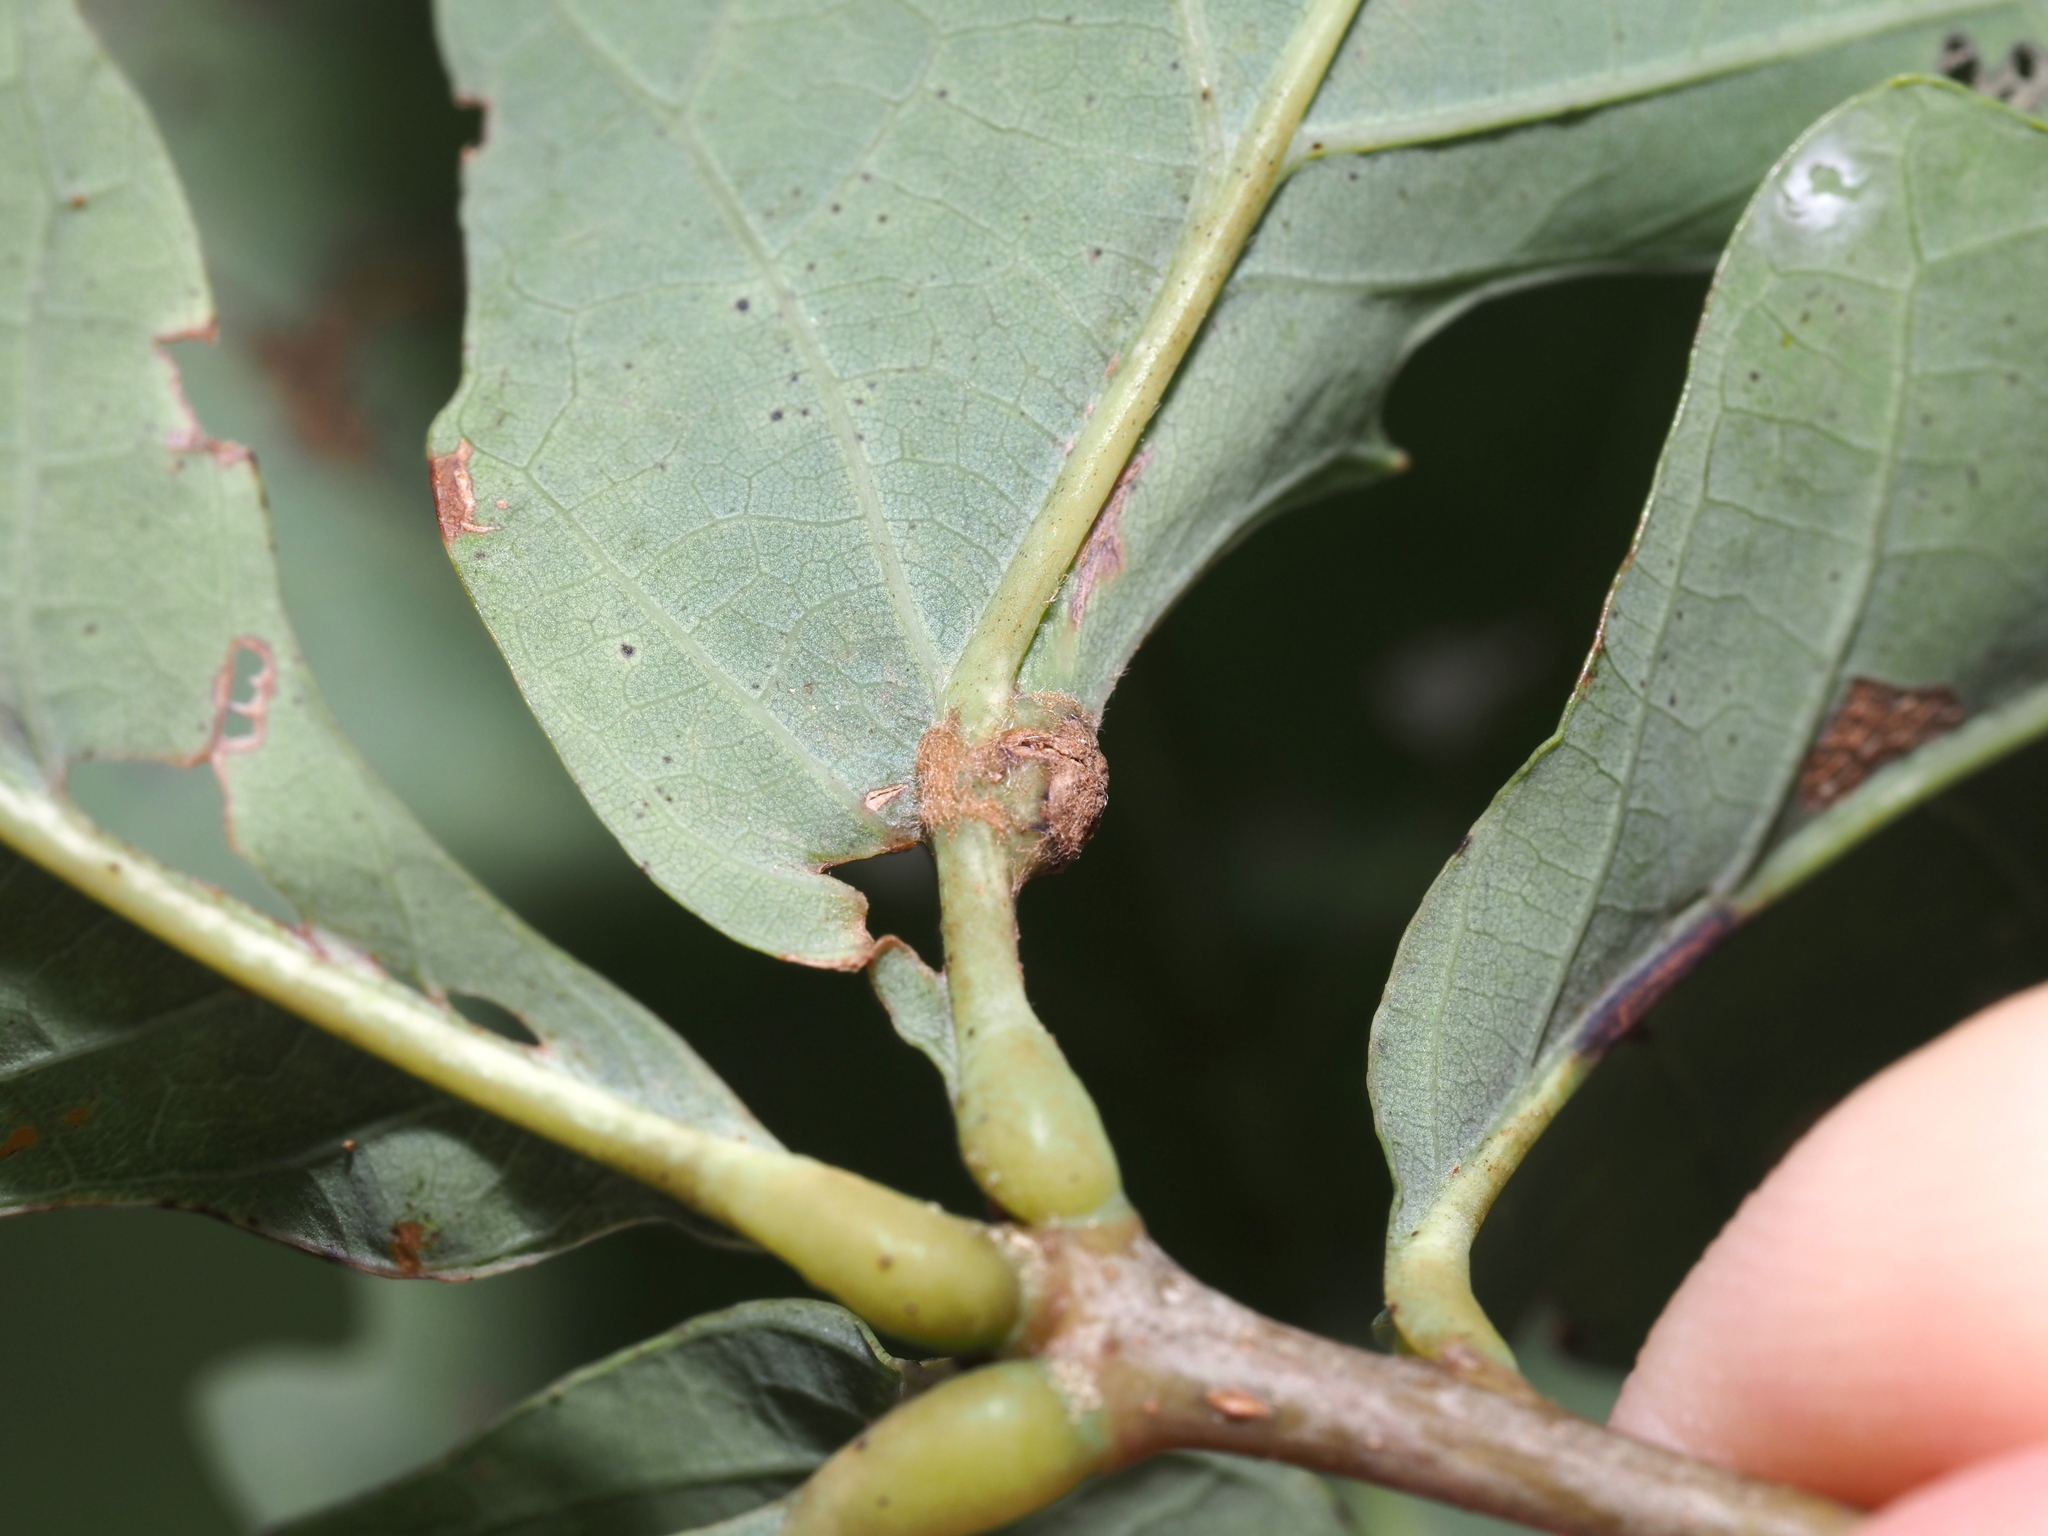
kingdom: Animalia
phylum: Arthropoda
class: Insecta
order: Hymenoptera
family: Cynipidae
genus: Andricus
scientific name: Andricus
